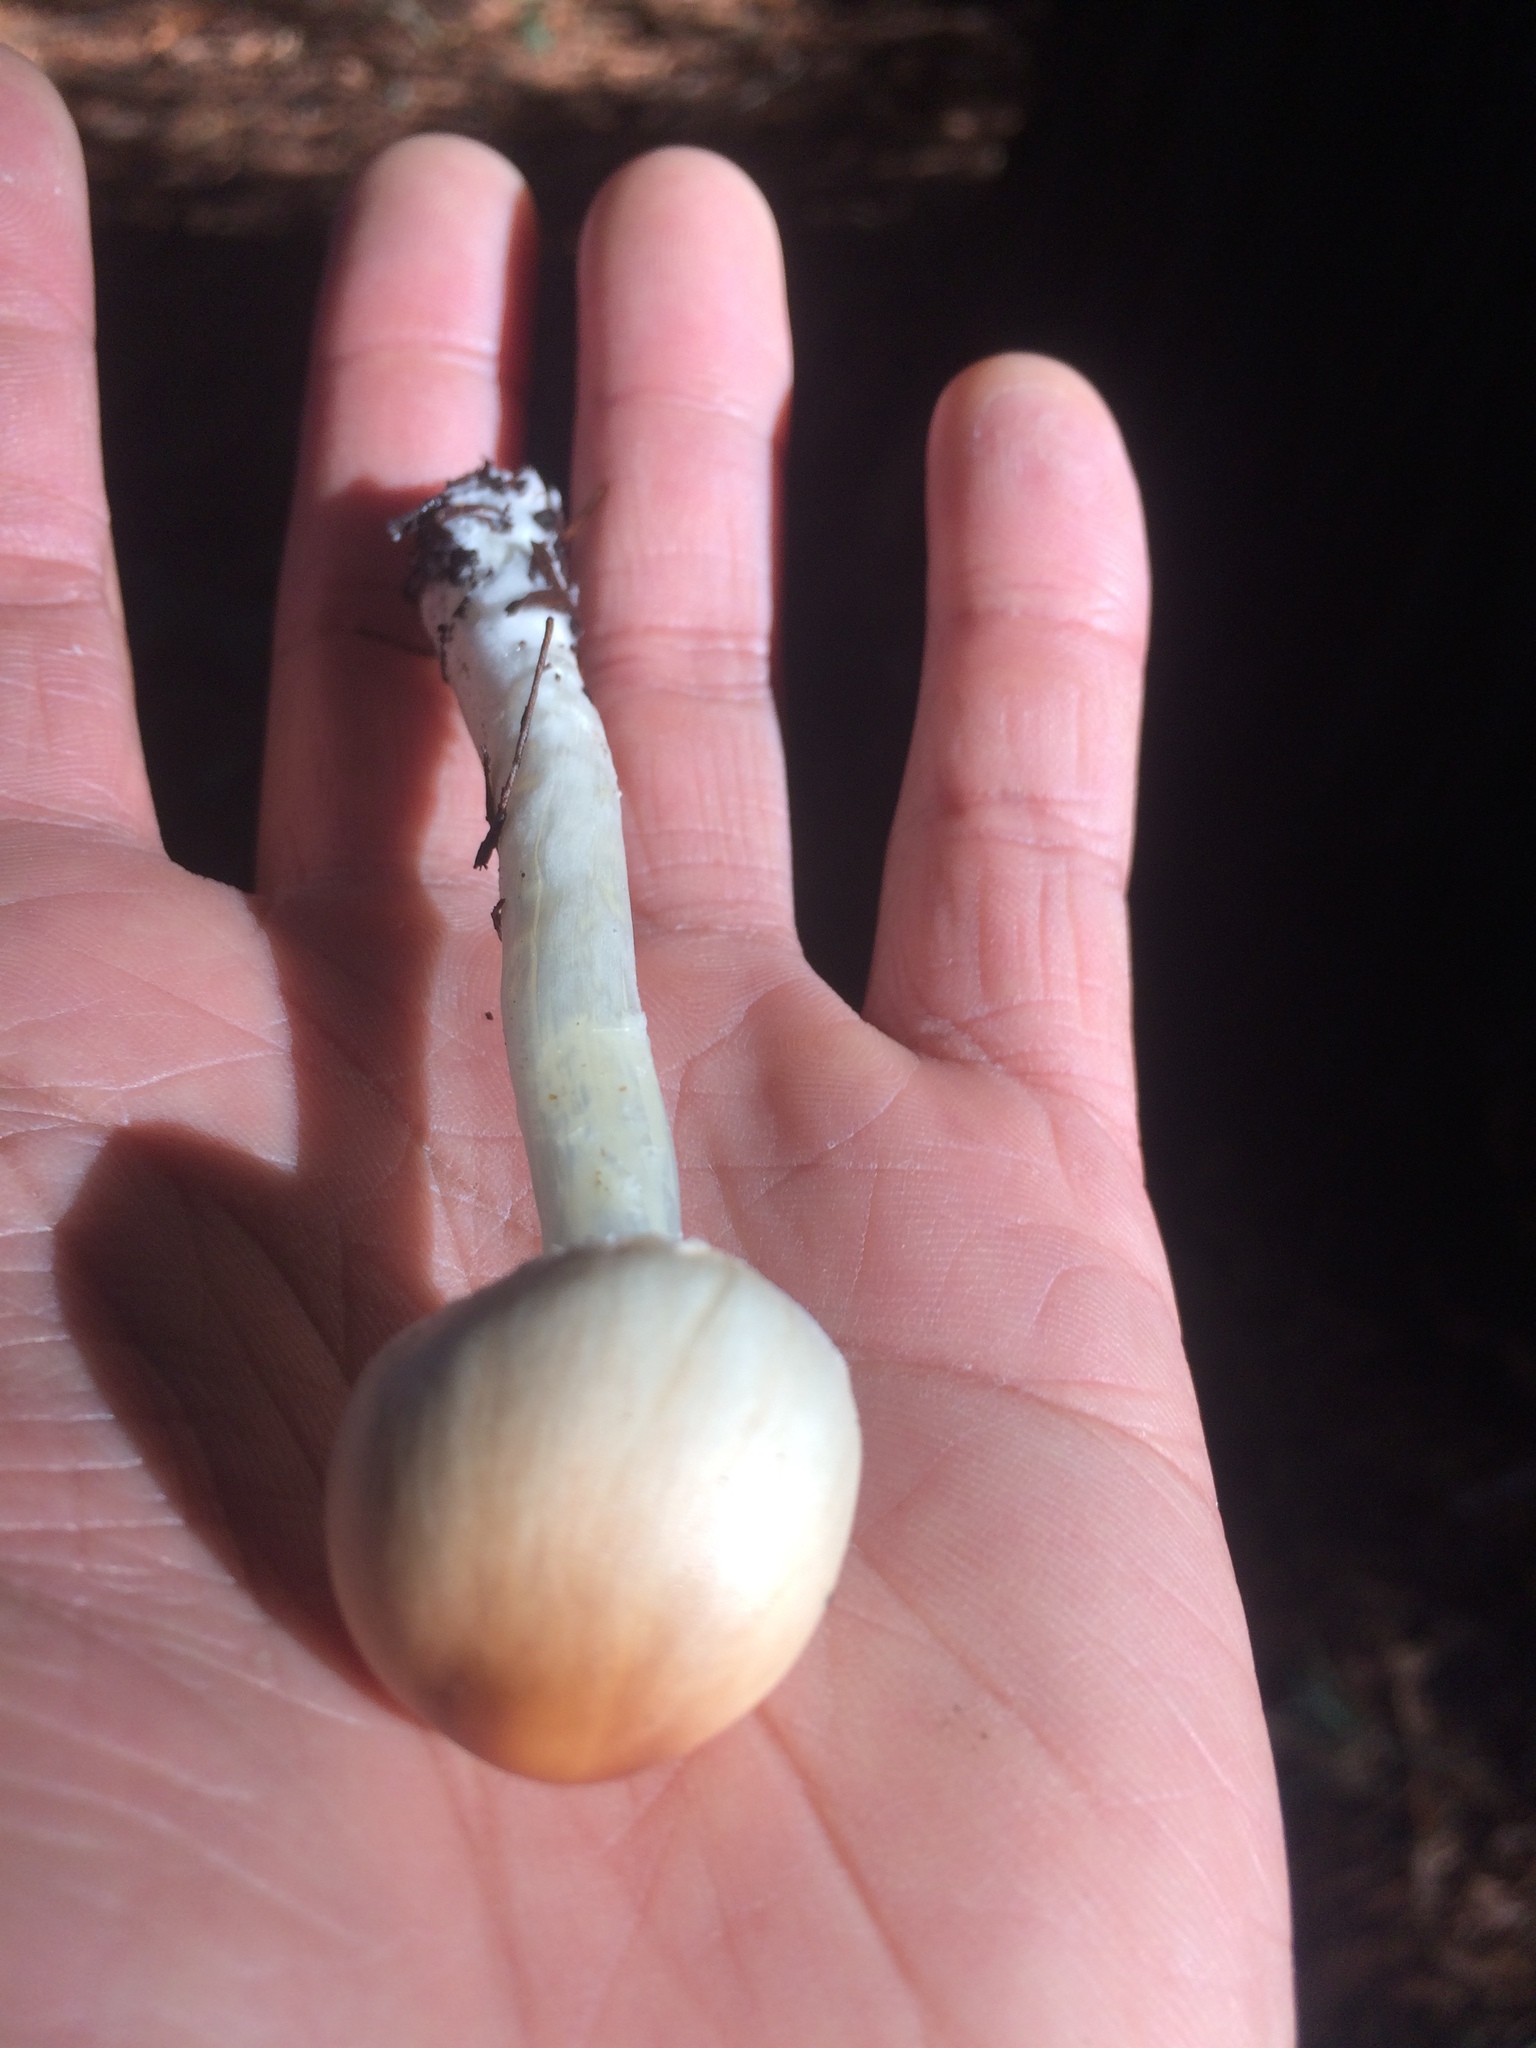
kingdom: Fungi
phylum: Basidiomycota
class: Agaricomycetes
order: Agaricales
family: Agaricaceae
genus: Lepiota
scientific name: Lepiota rubrotinctoides
